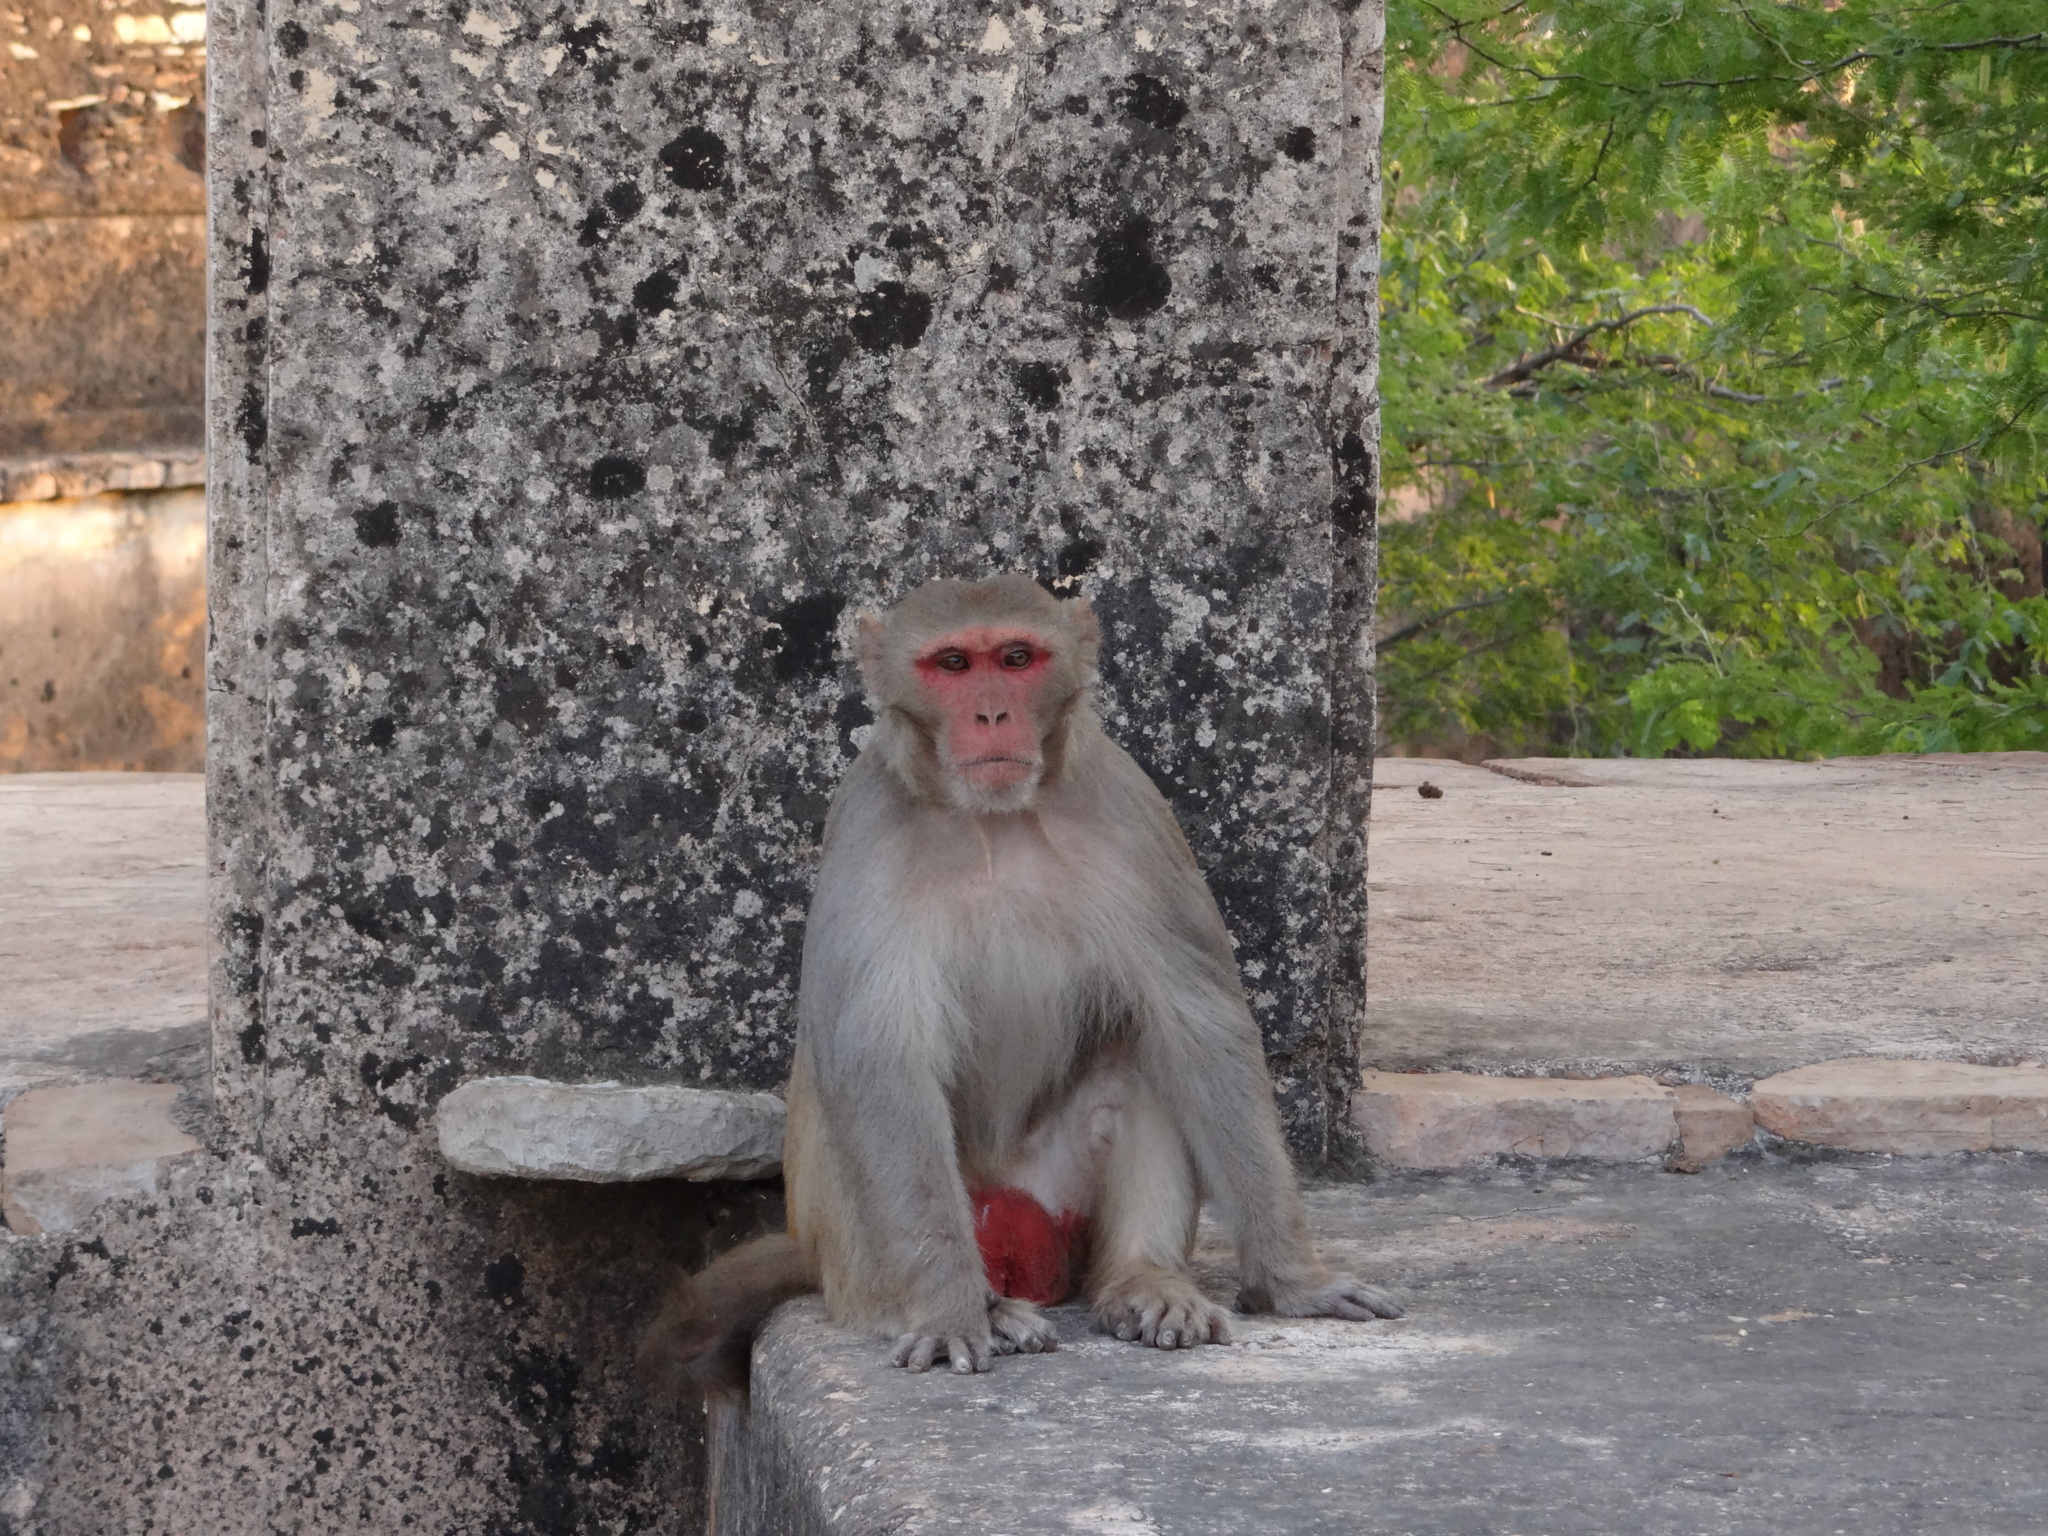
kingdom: Animalia
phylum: Chordata
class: Mammalia
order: Primates
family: Cercopithecidae
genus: Macaca
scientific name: Macaca mulatta
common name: Rhesus monkey
